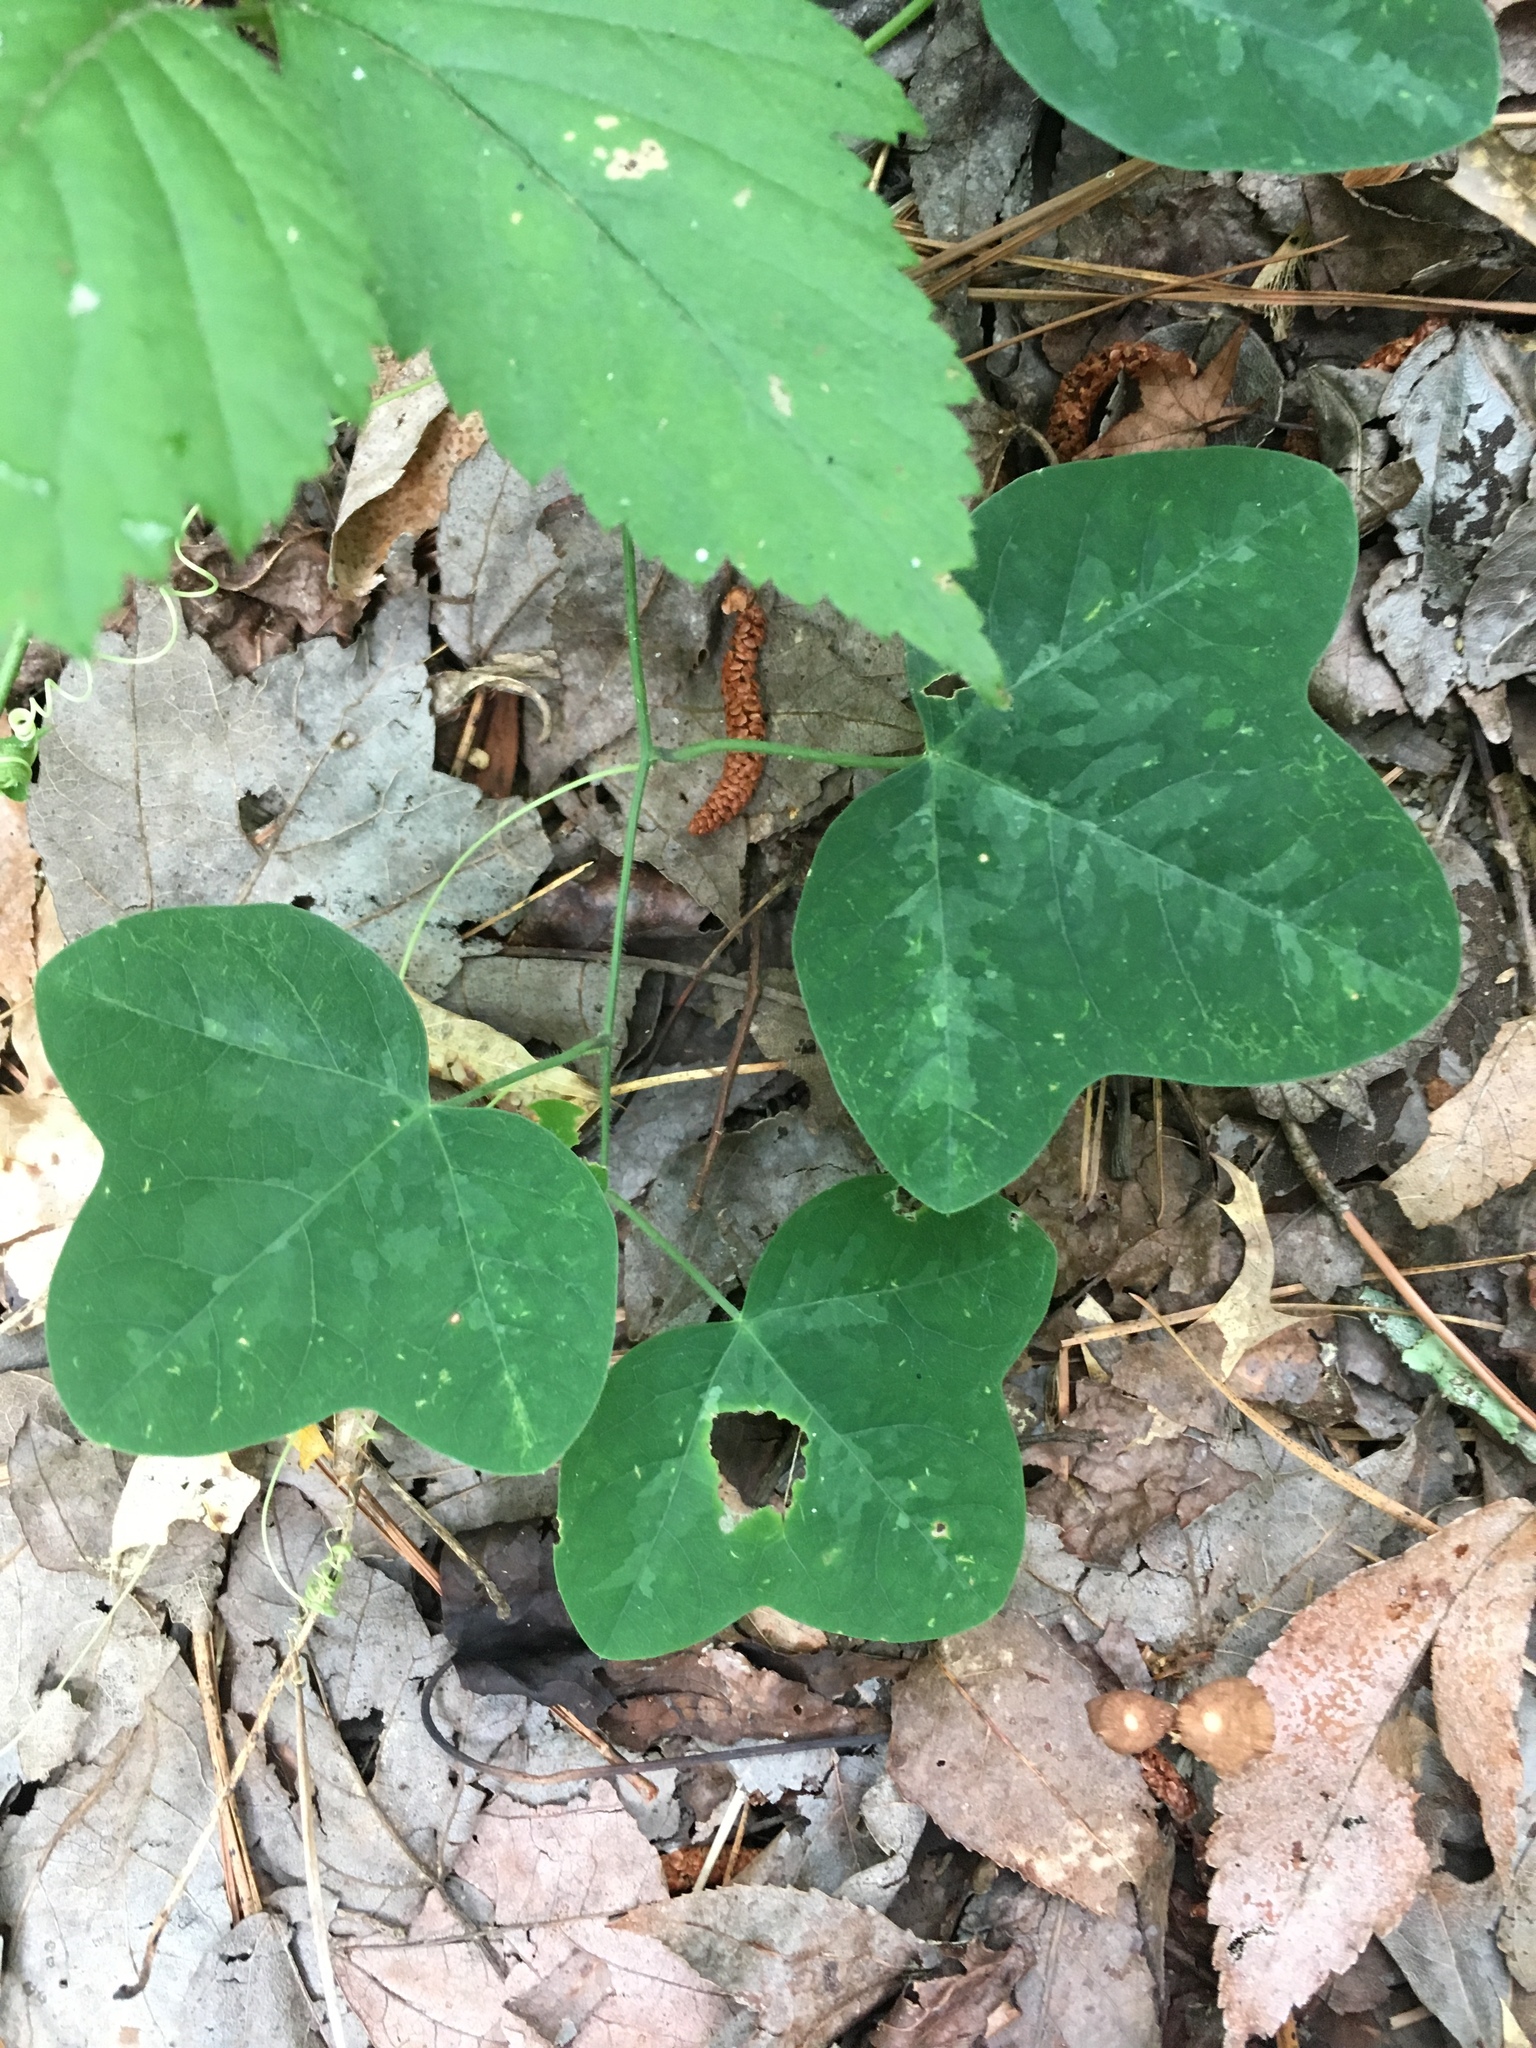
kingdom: Plantae
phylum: Tracheophyta
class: Magnoliopsida
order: Malpighiales
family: Passifloraceae
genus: Passiflora
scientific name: Passiflora lutea
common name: Yellow passionflower
